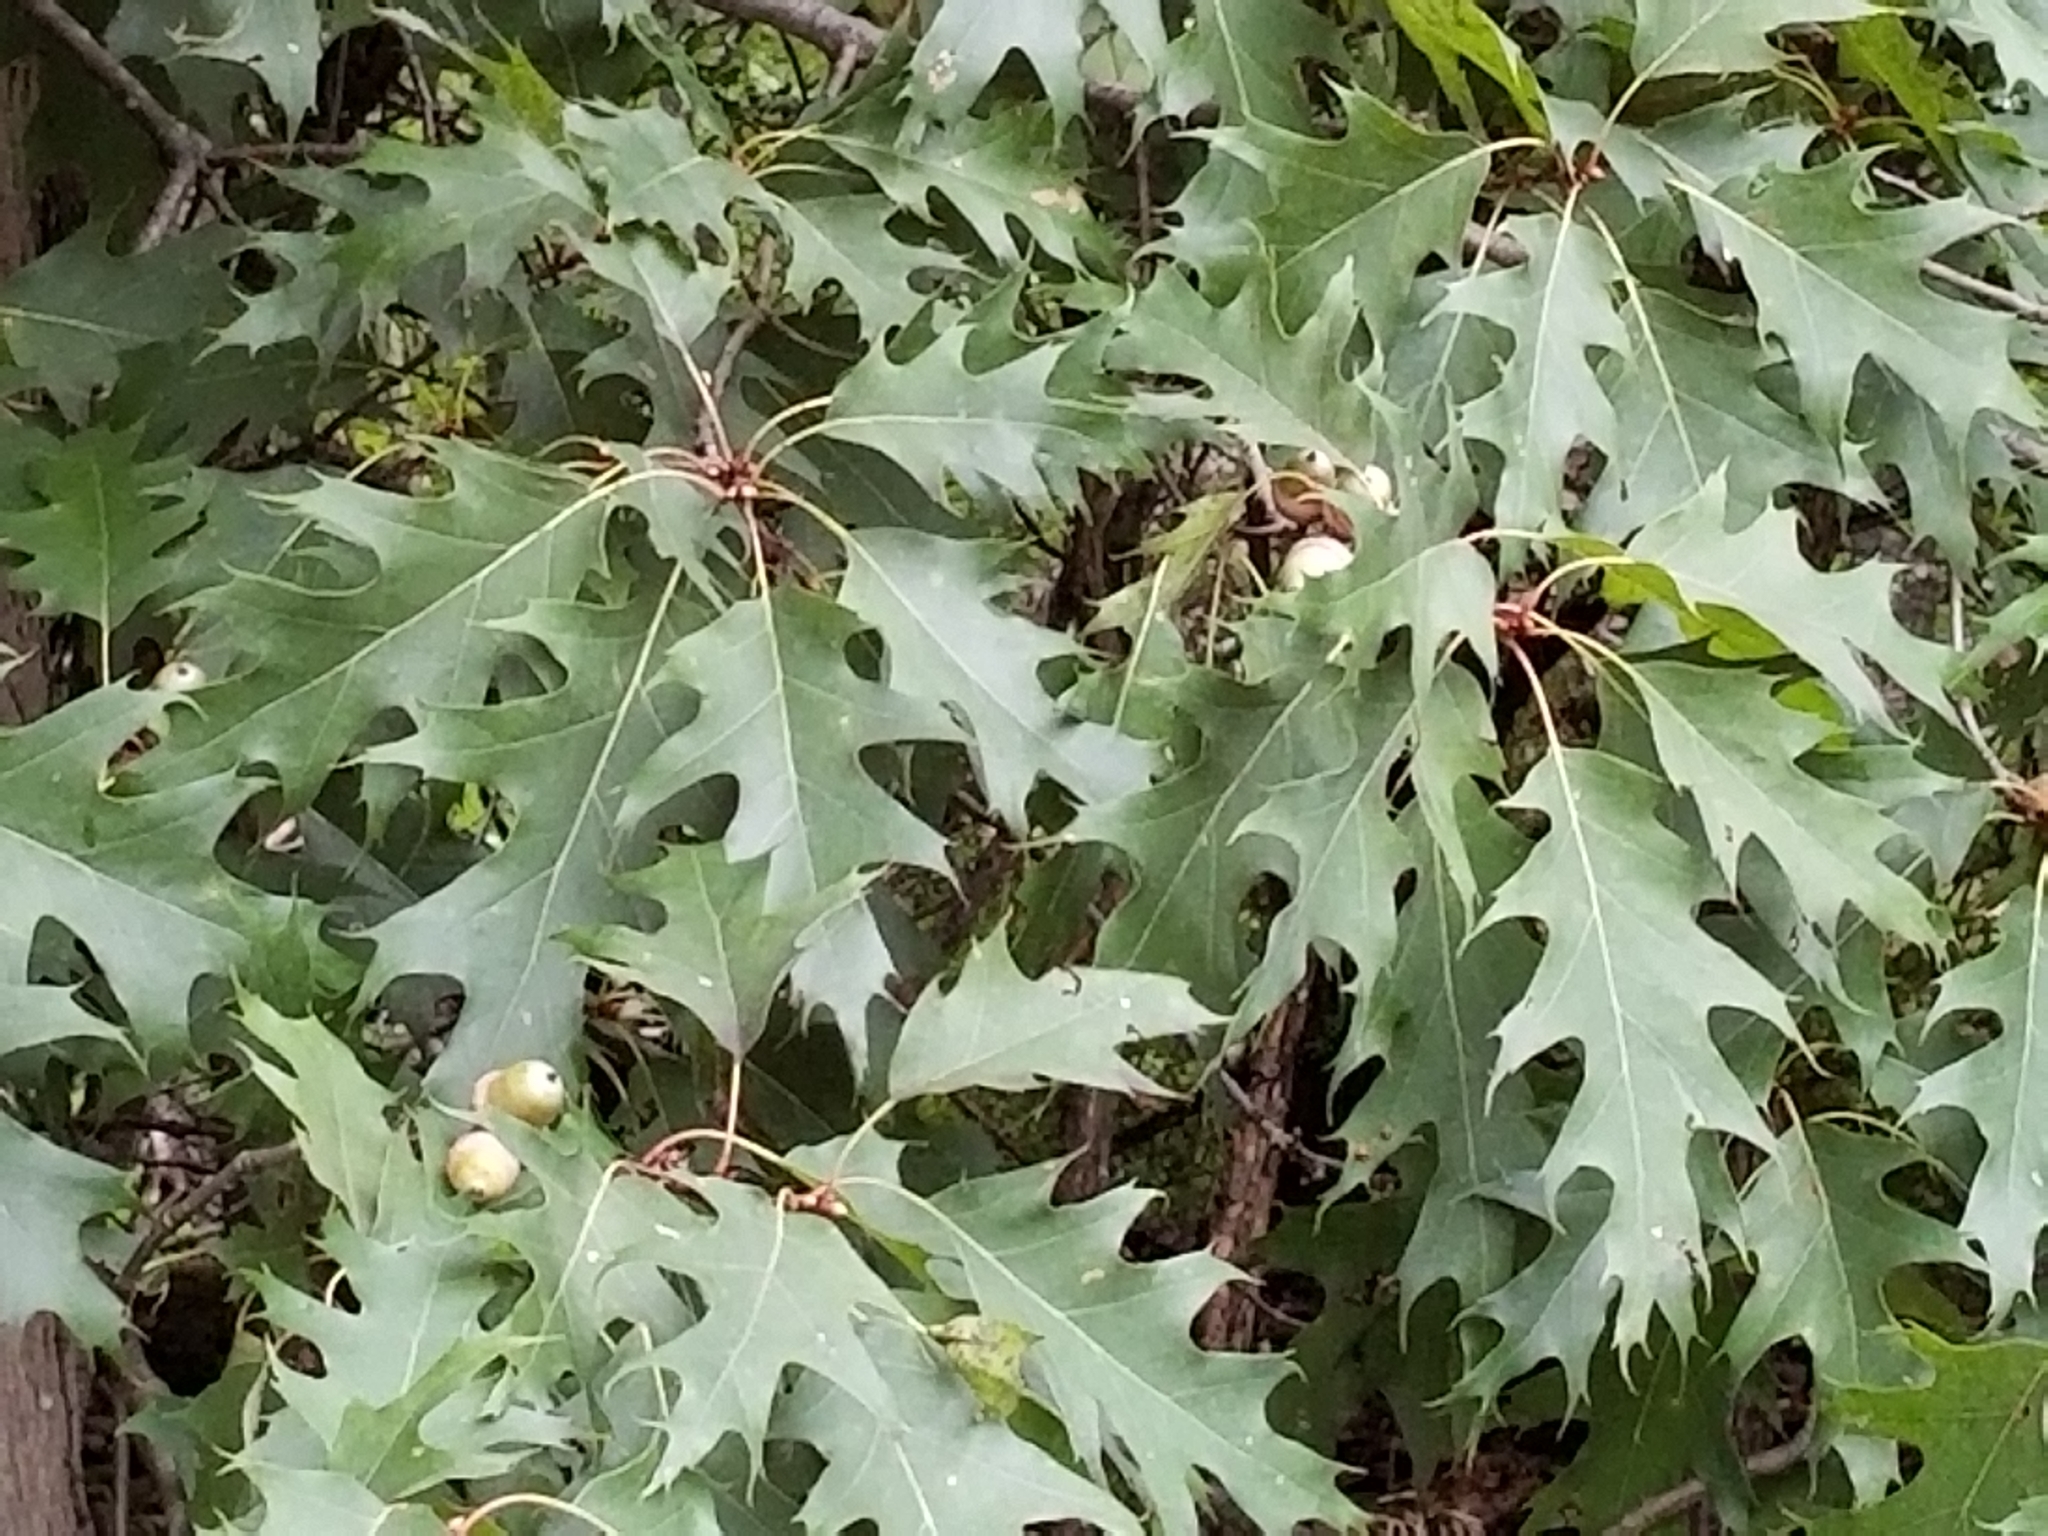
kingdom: Plantae
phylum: Tracheophyta
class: Magnoliopsida
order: Fagales
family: Fagaceae
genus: Quercus
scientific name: Quercus rubra
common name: Red oak
